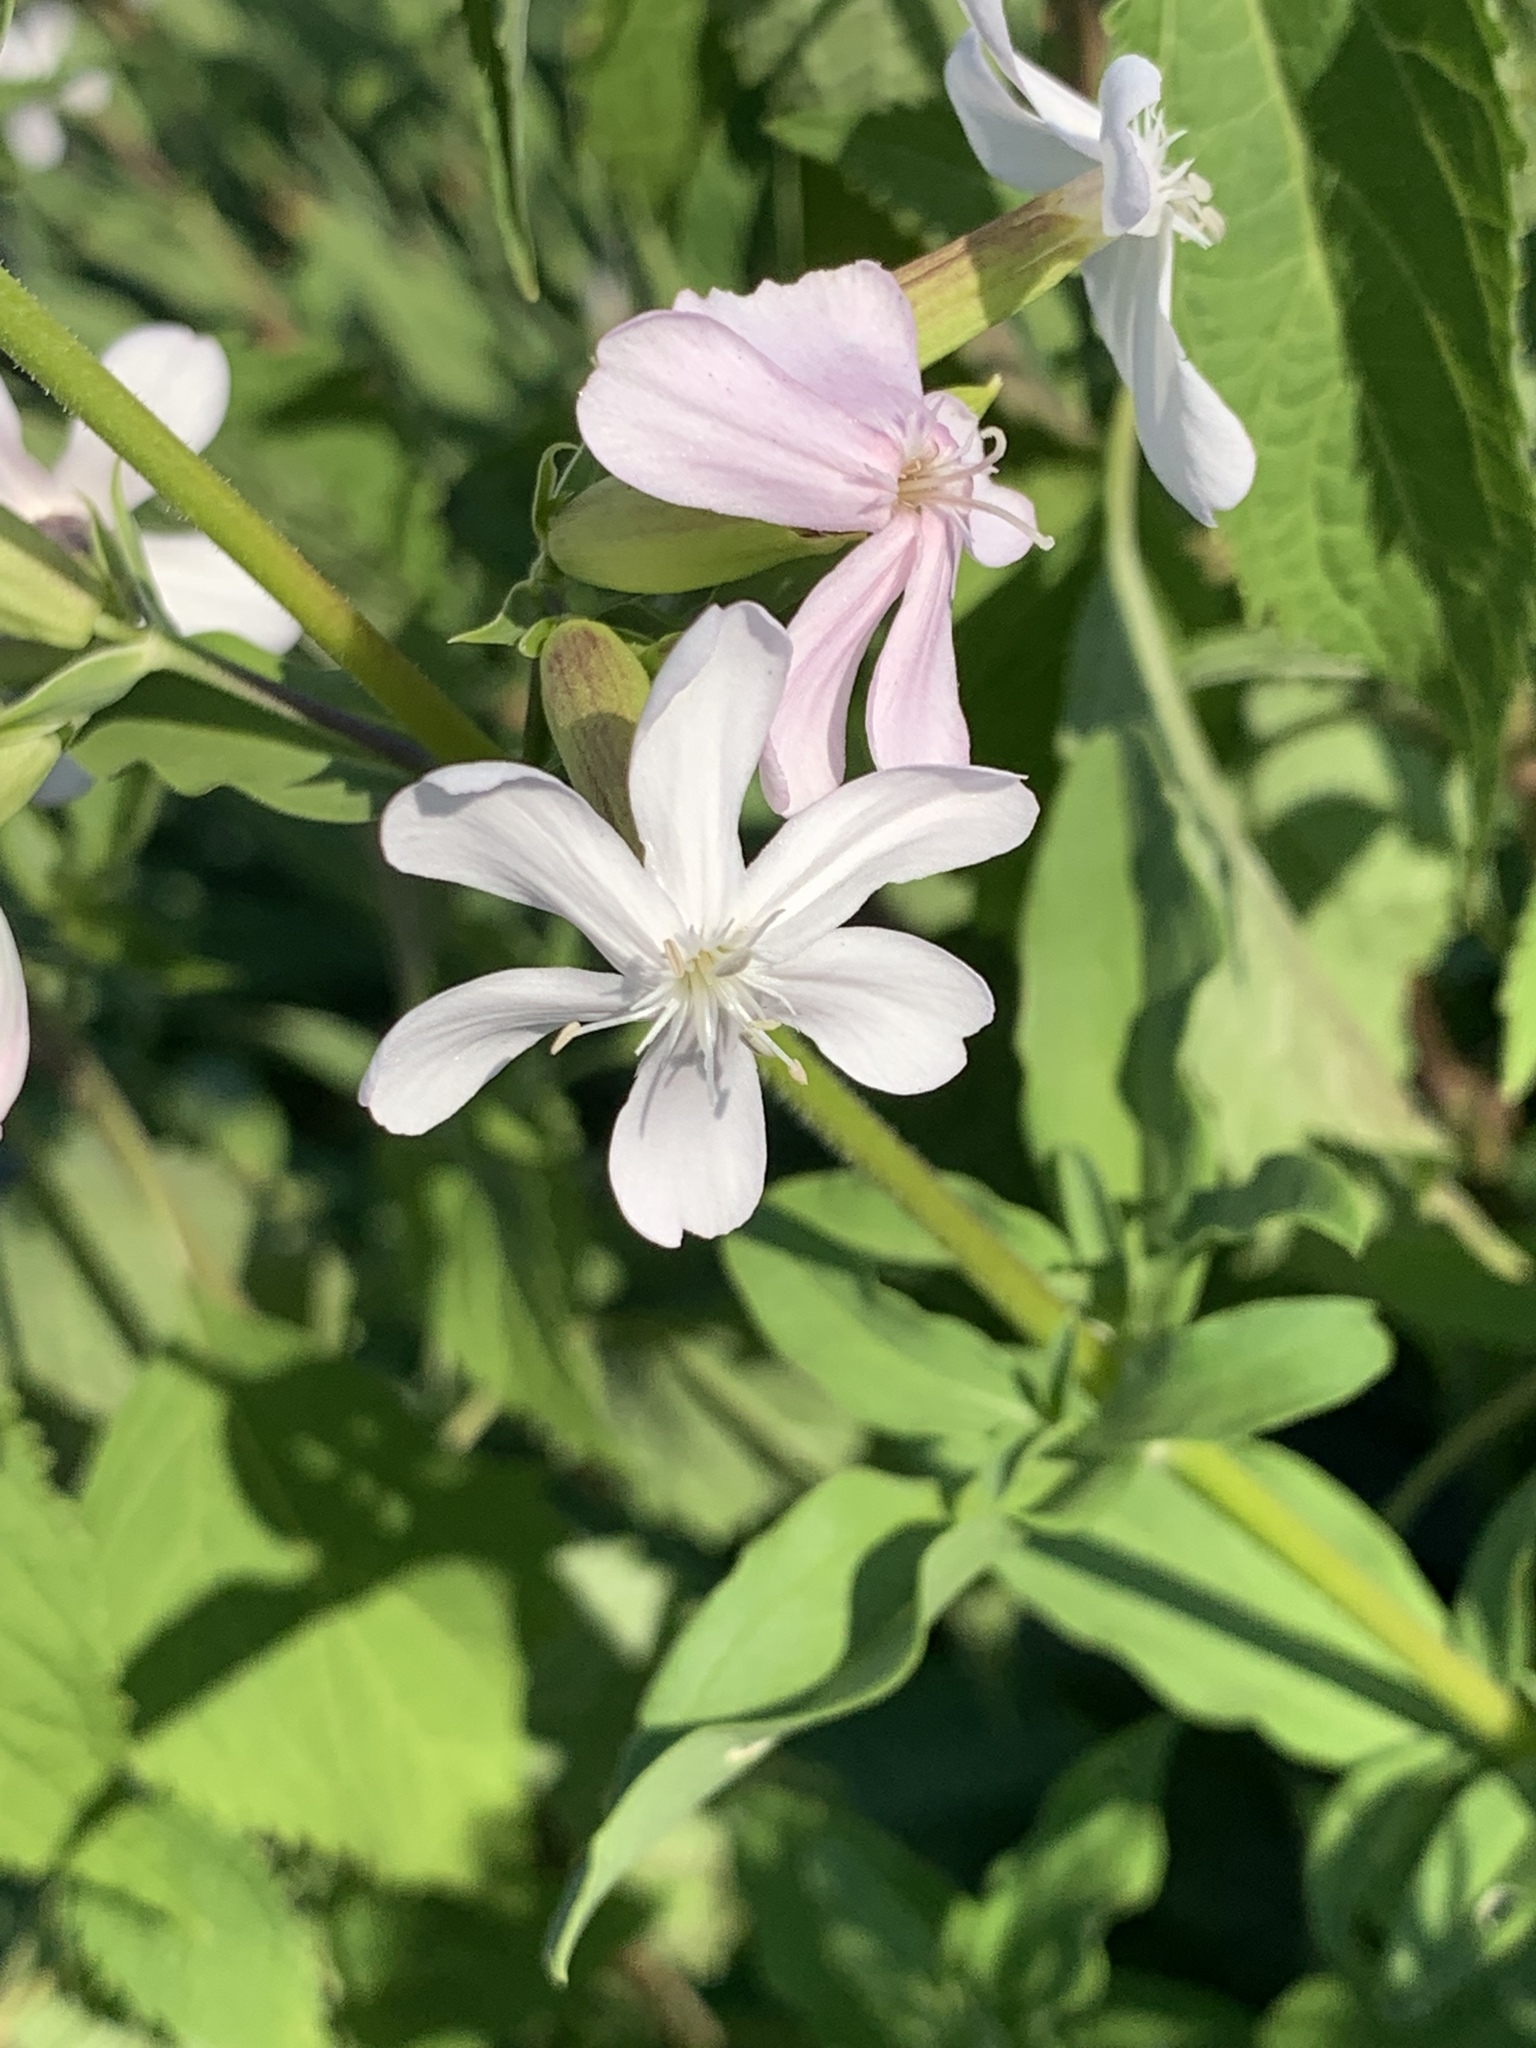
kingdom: Plantae
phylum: Tracheophyta
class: Magnoliopsida
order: Caryophyllales
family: Caryophyllaceae
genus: Saponaria
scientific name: Saponaria officinalis
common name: Soapwort
